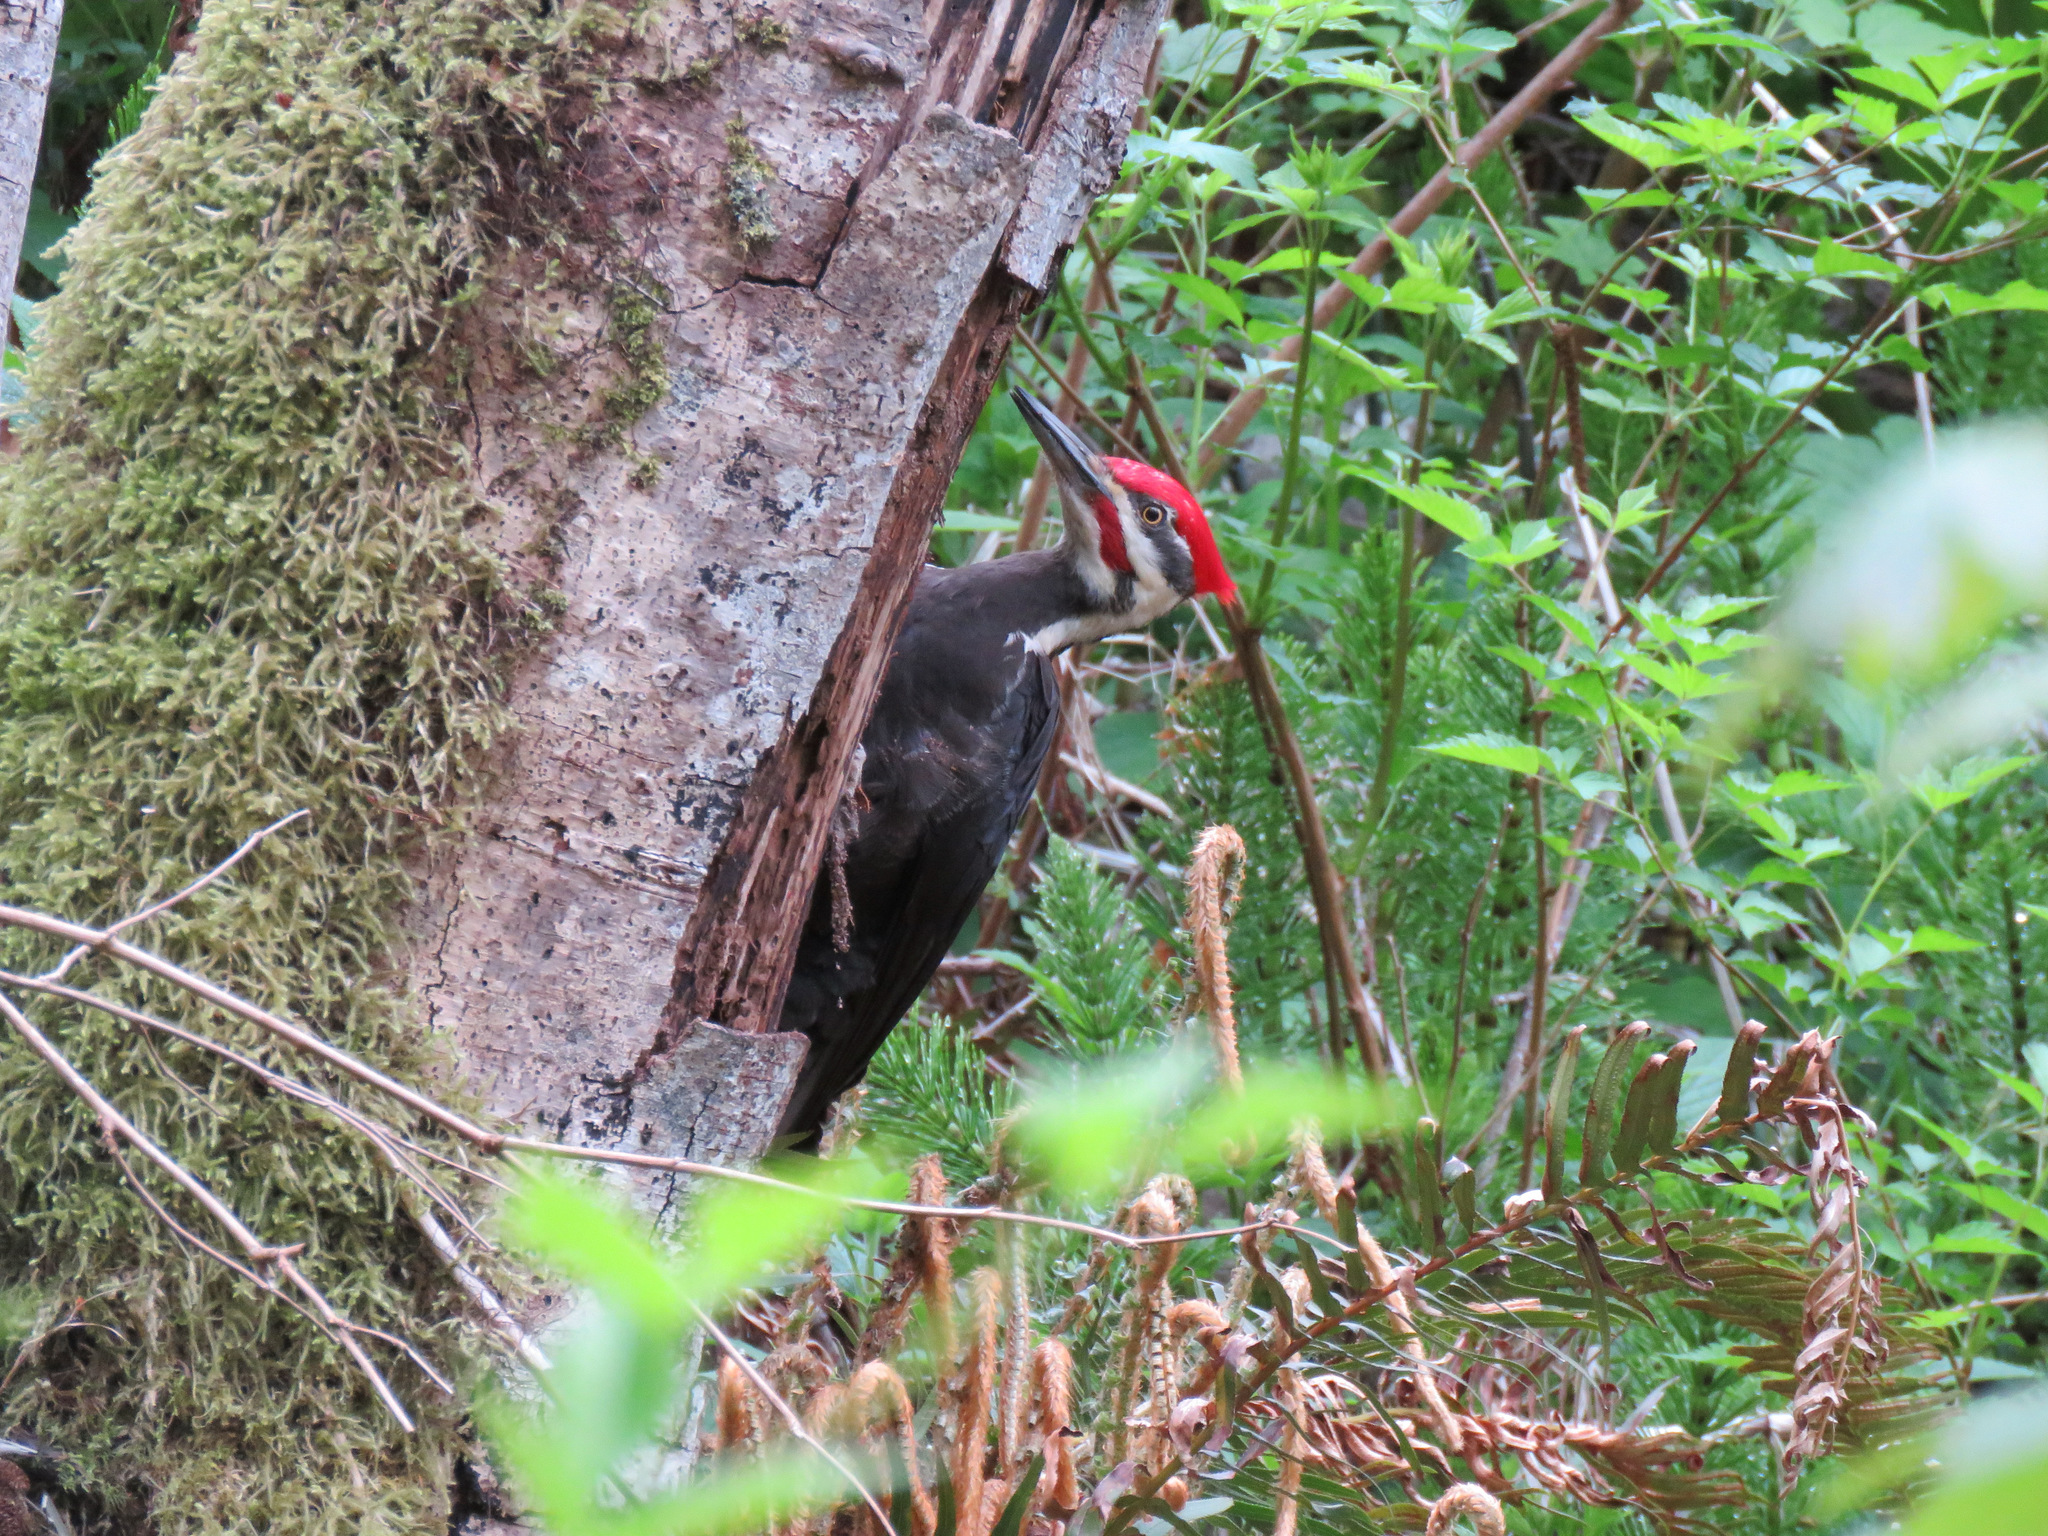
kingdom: Animalia
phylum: Chordata
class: Aves
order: Piciformes
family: Picidae
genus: Dryocopus
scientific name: Dryocopus pileatus
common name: Pileated woodpecker
